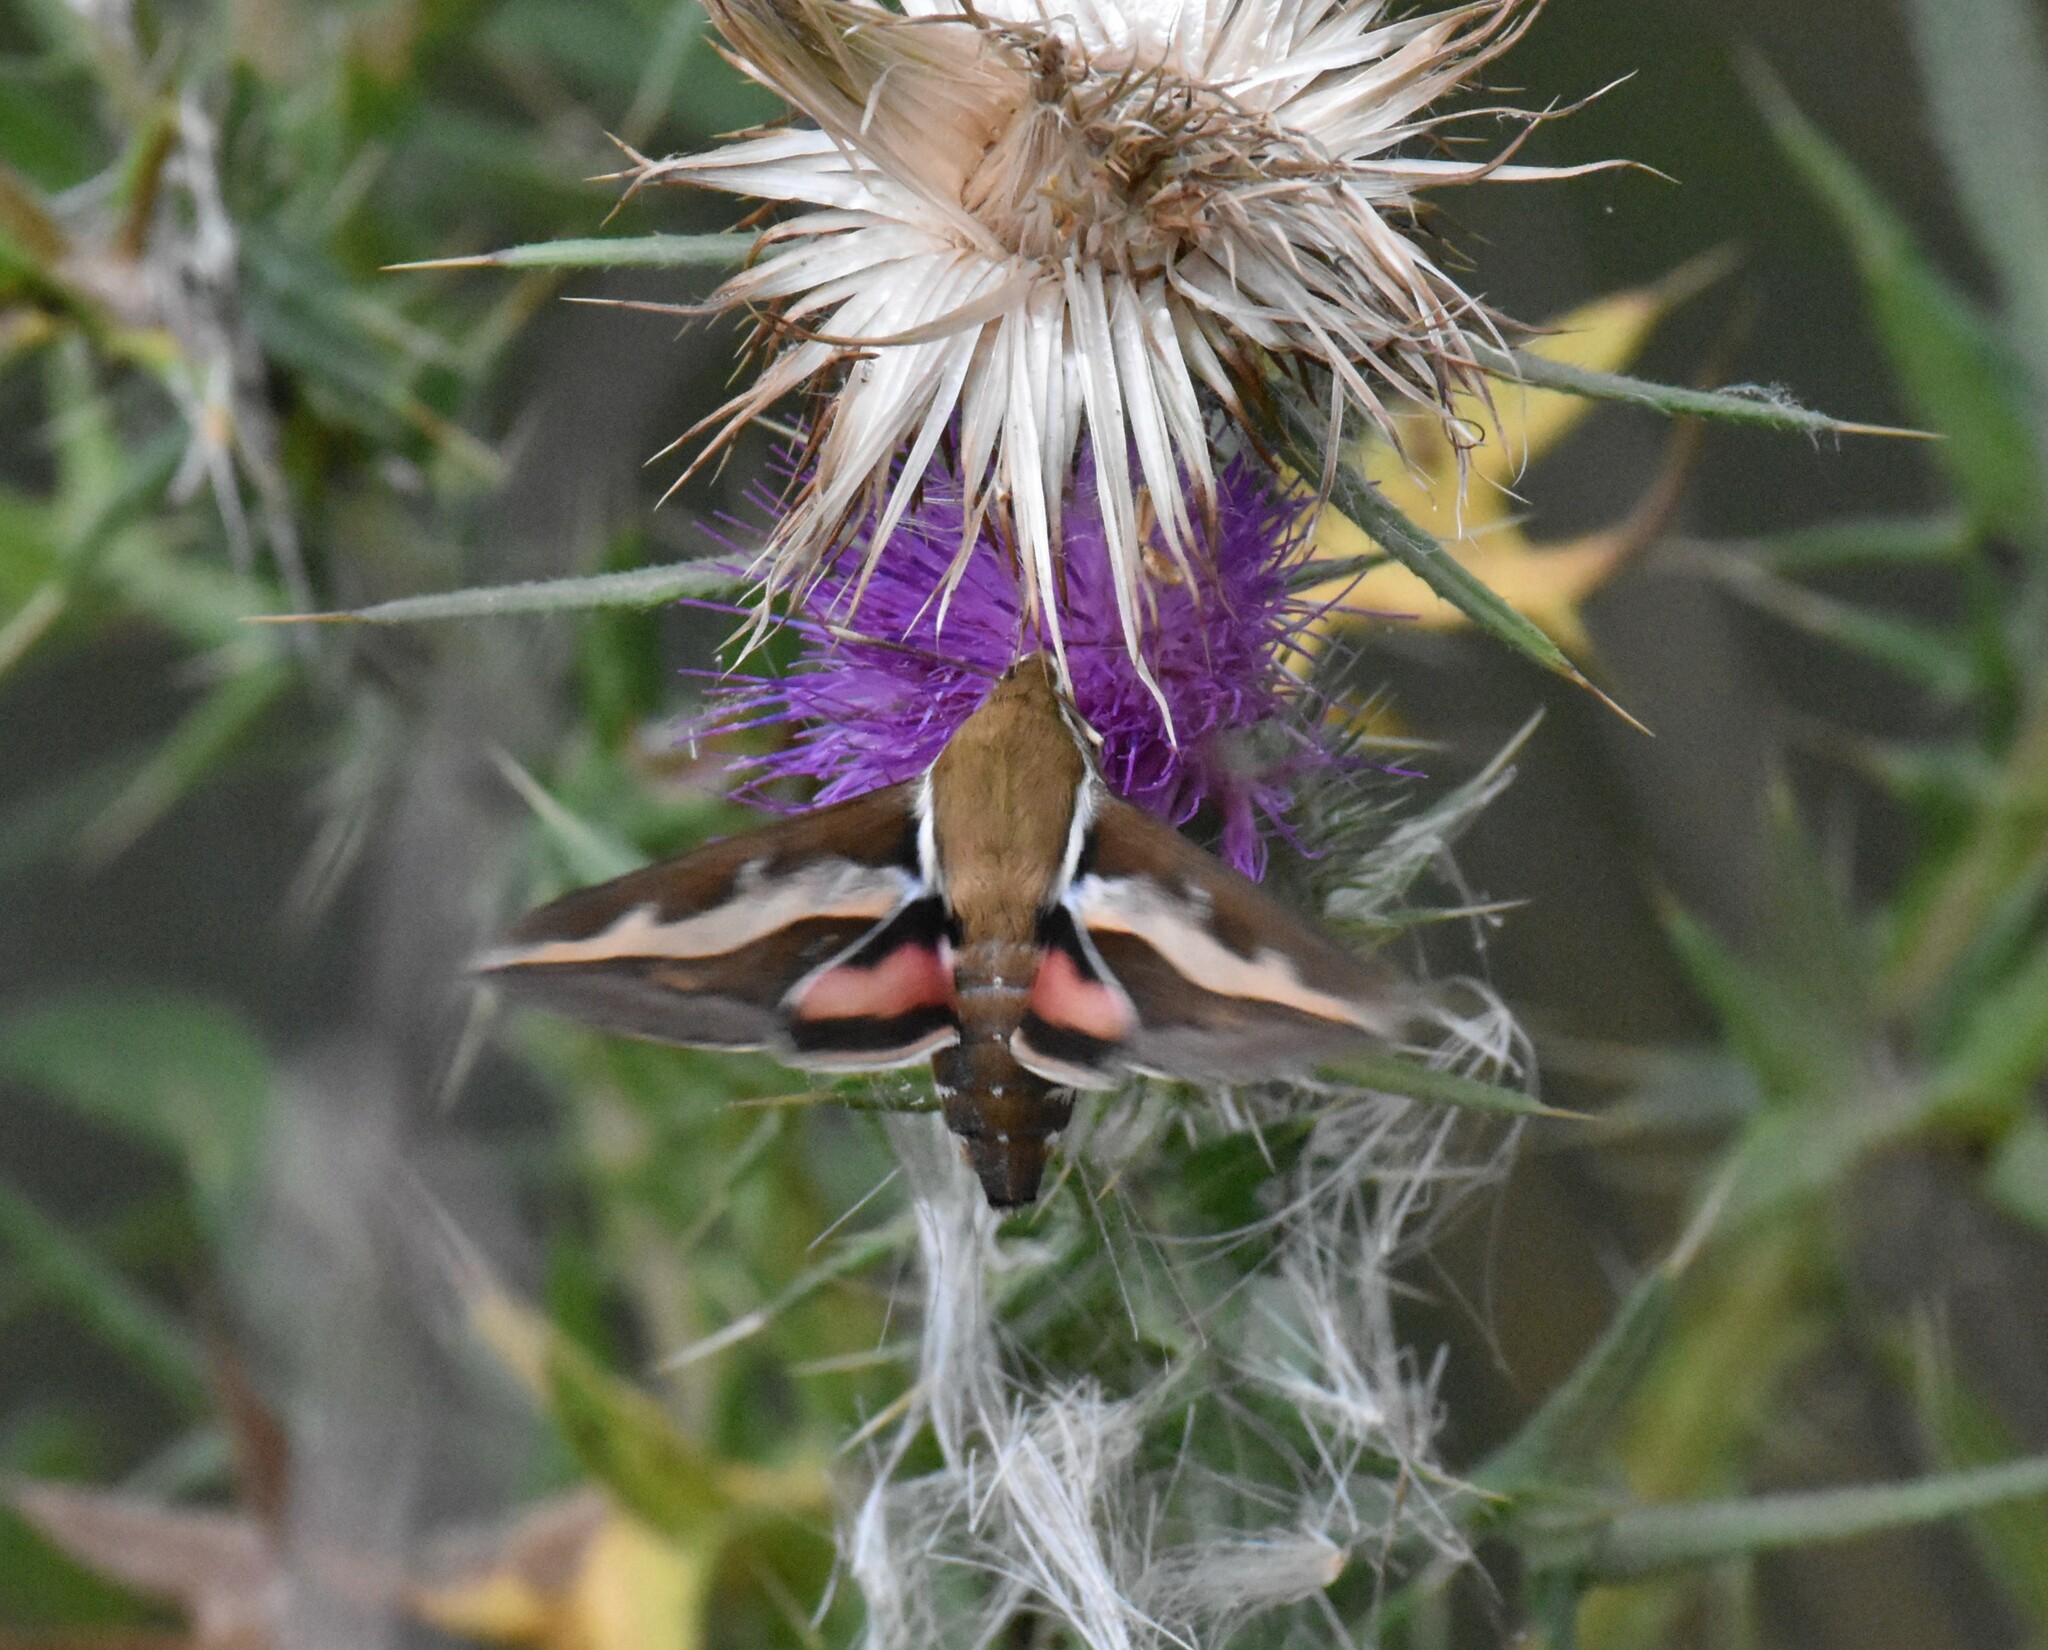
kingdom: Animalia
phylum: Arthropoda
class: Insecta
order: Lepidoptera
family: Sphingidae
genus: Hyles
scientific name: Hyles gallii
